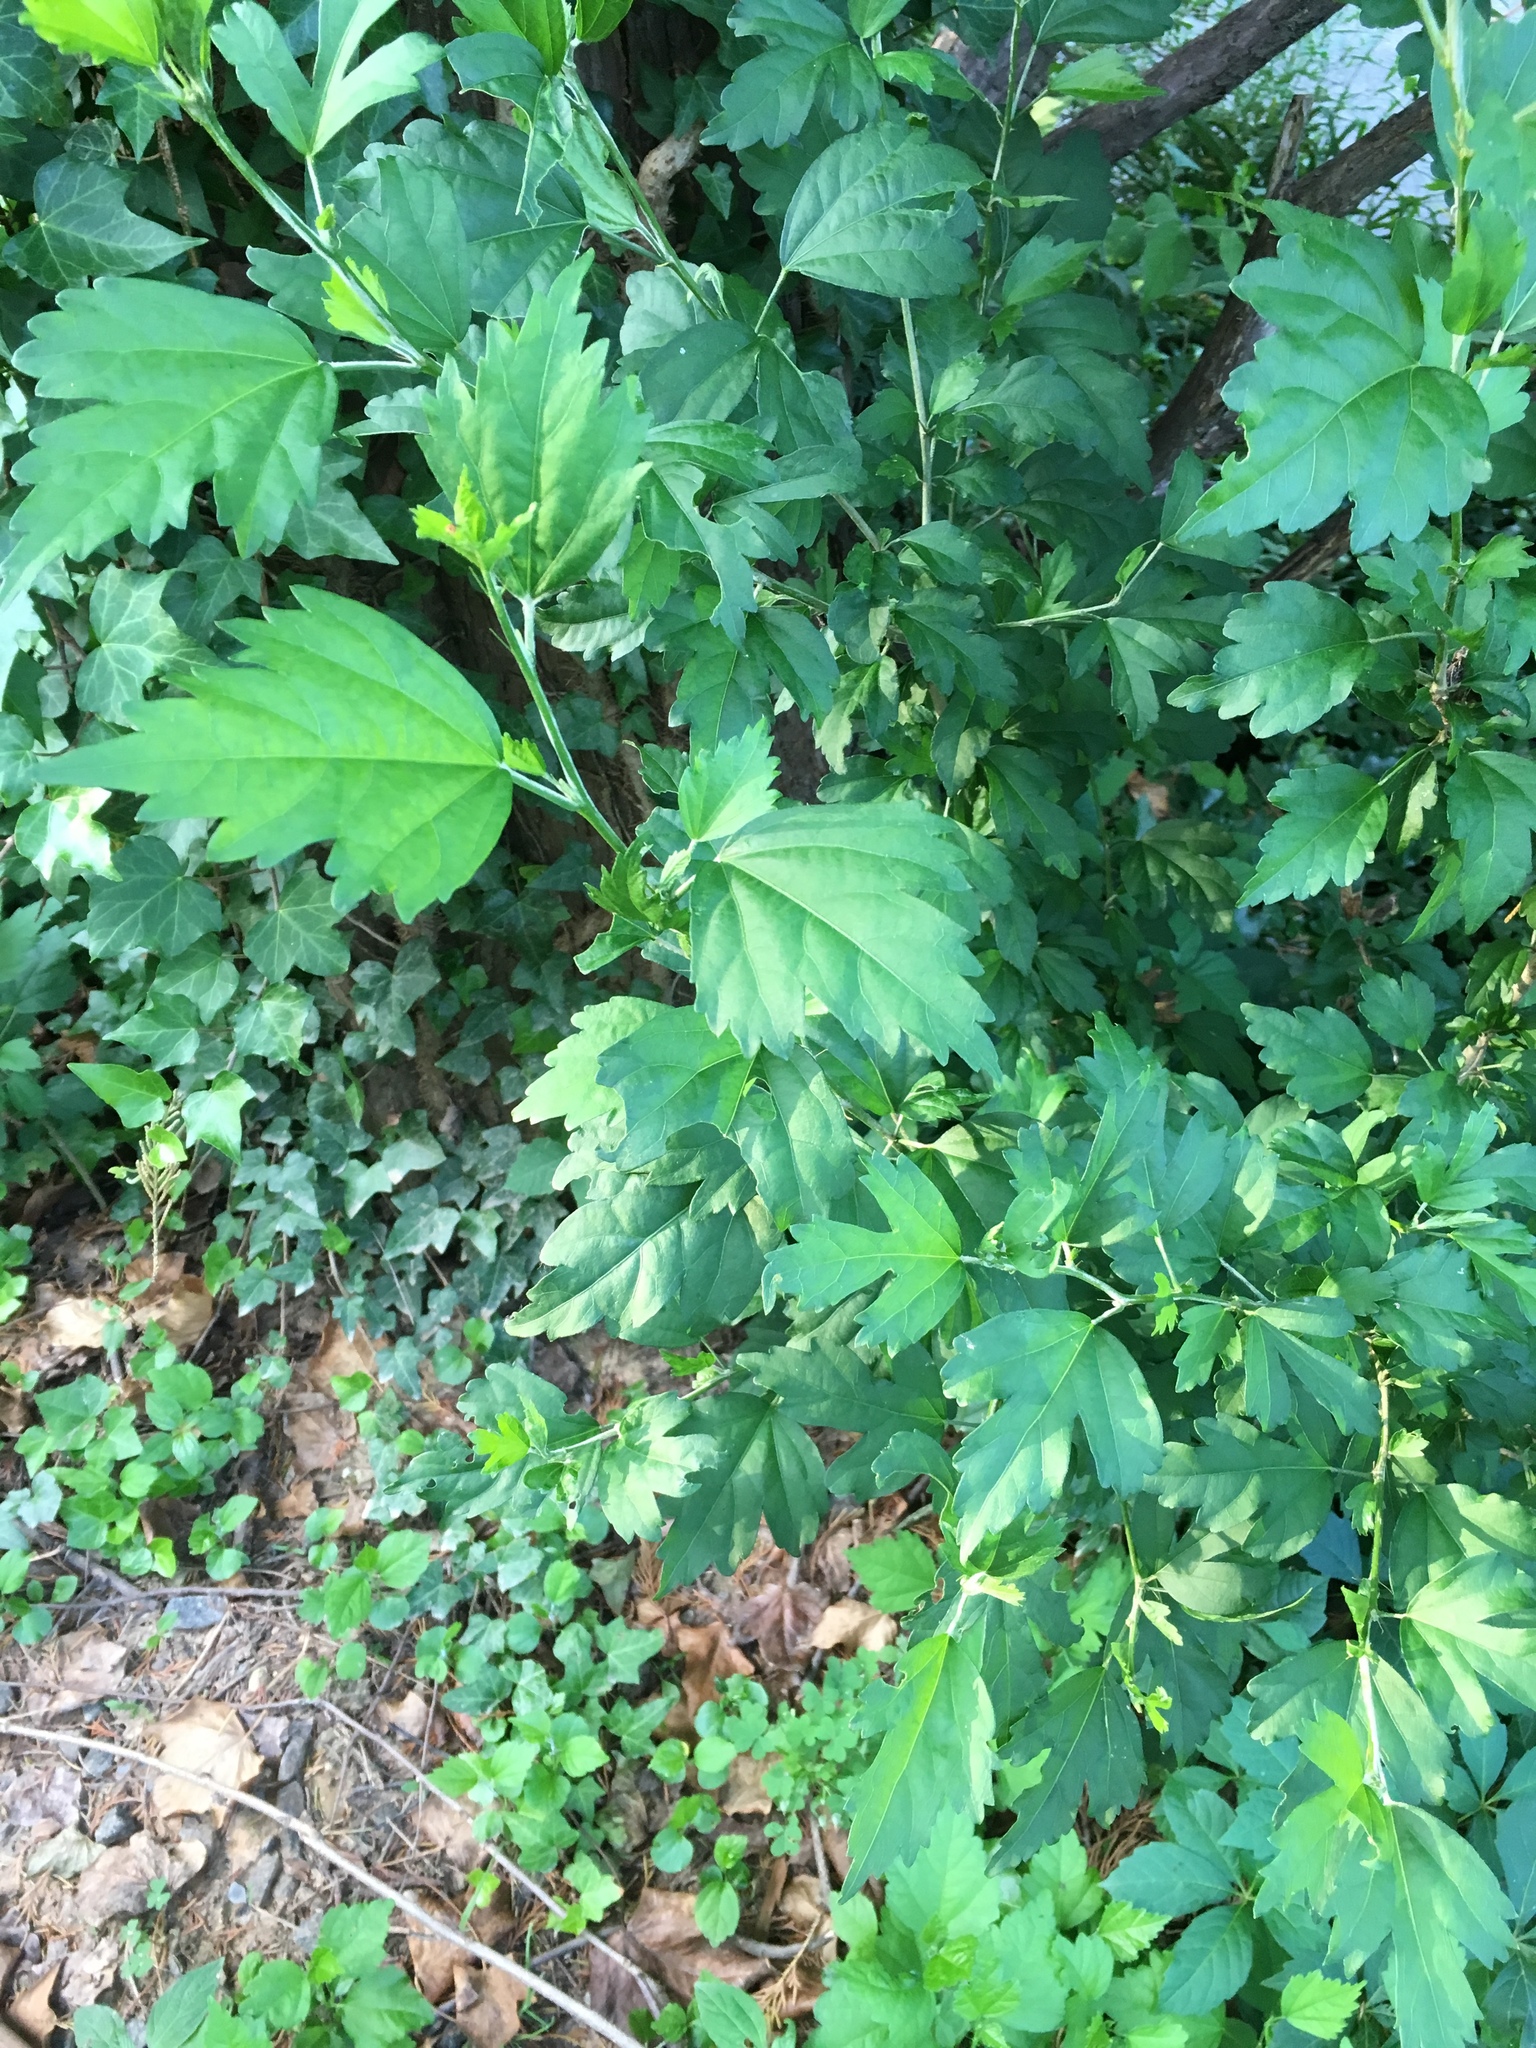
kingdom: Plantae
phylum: Tracheophyta
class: Magnoliopsida
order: Malvales
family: Malvaceae
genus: Hibiscus
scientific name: Hibiscus syriacus
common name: Syrian ketmia
